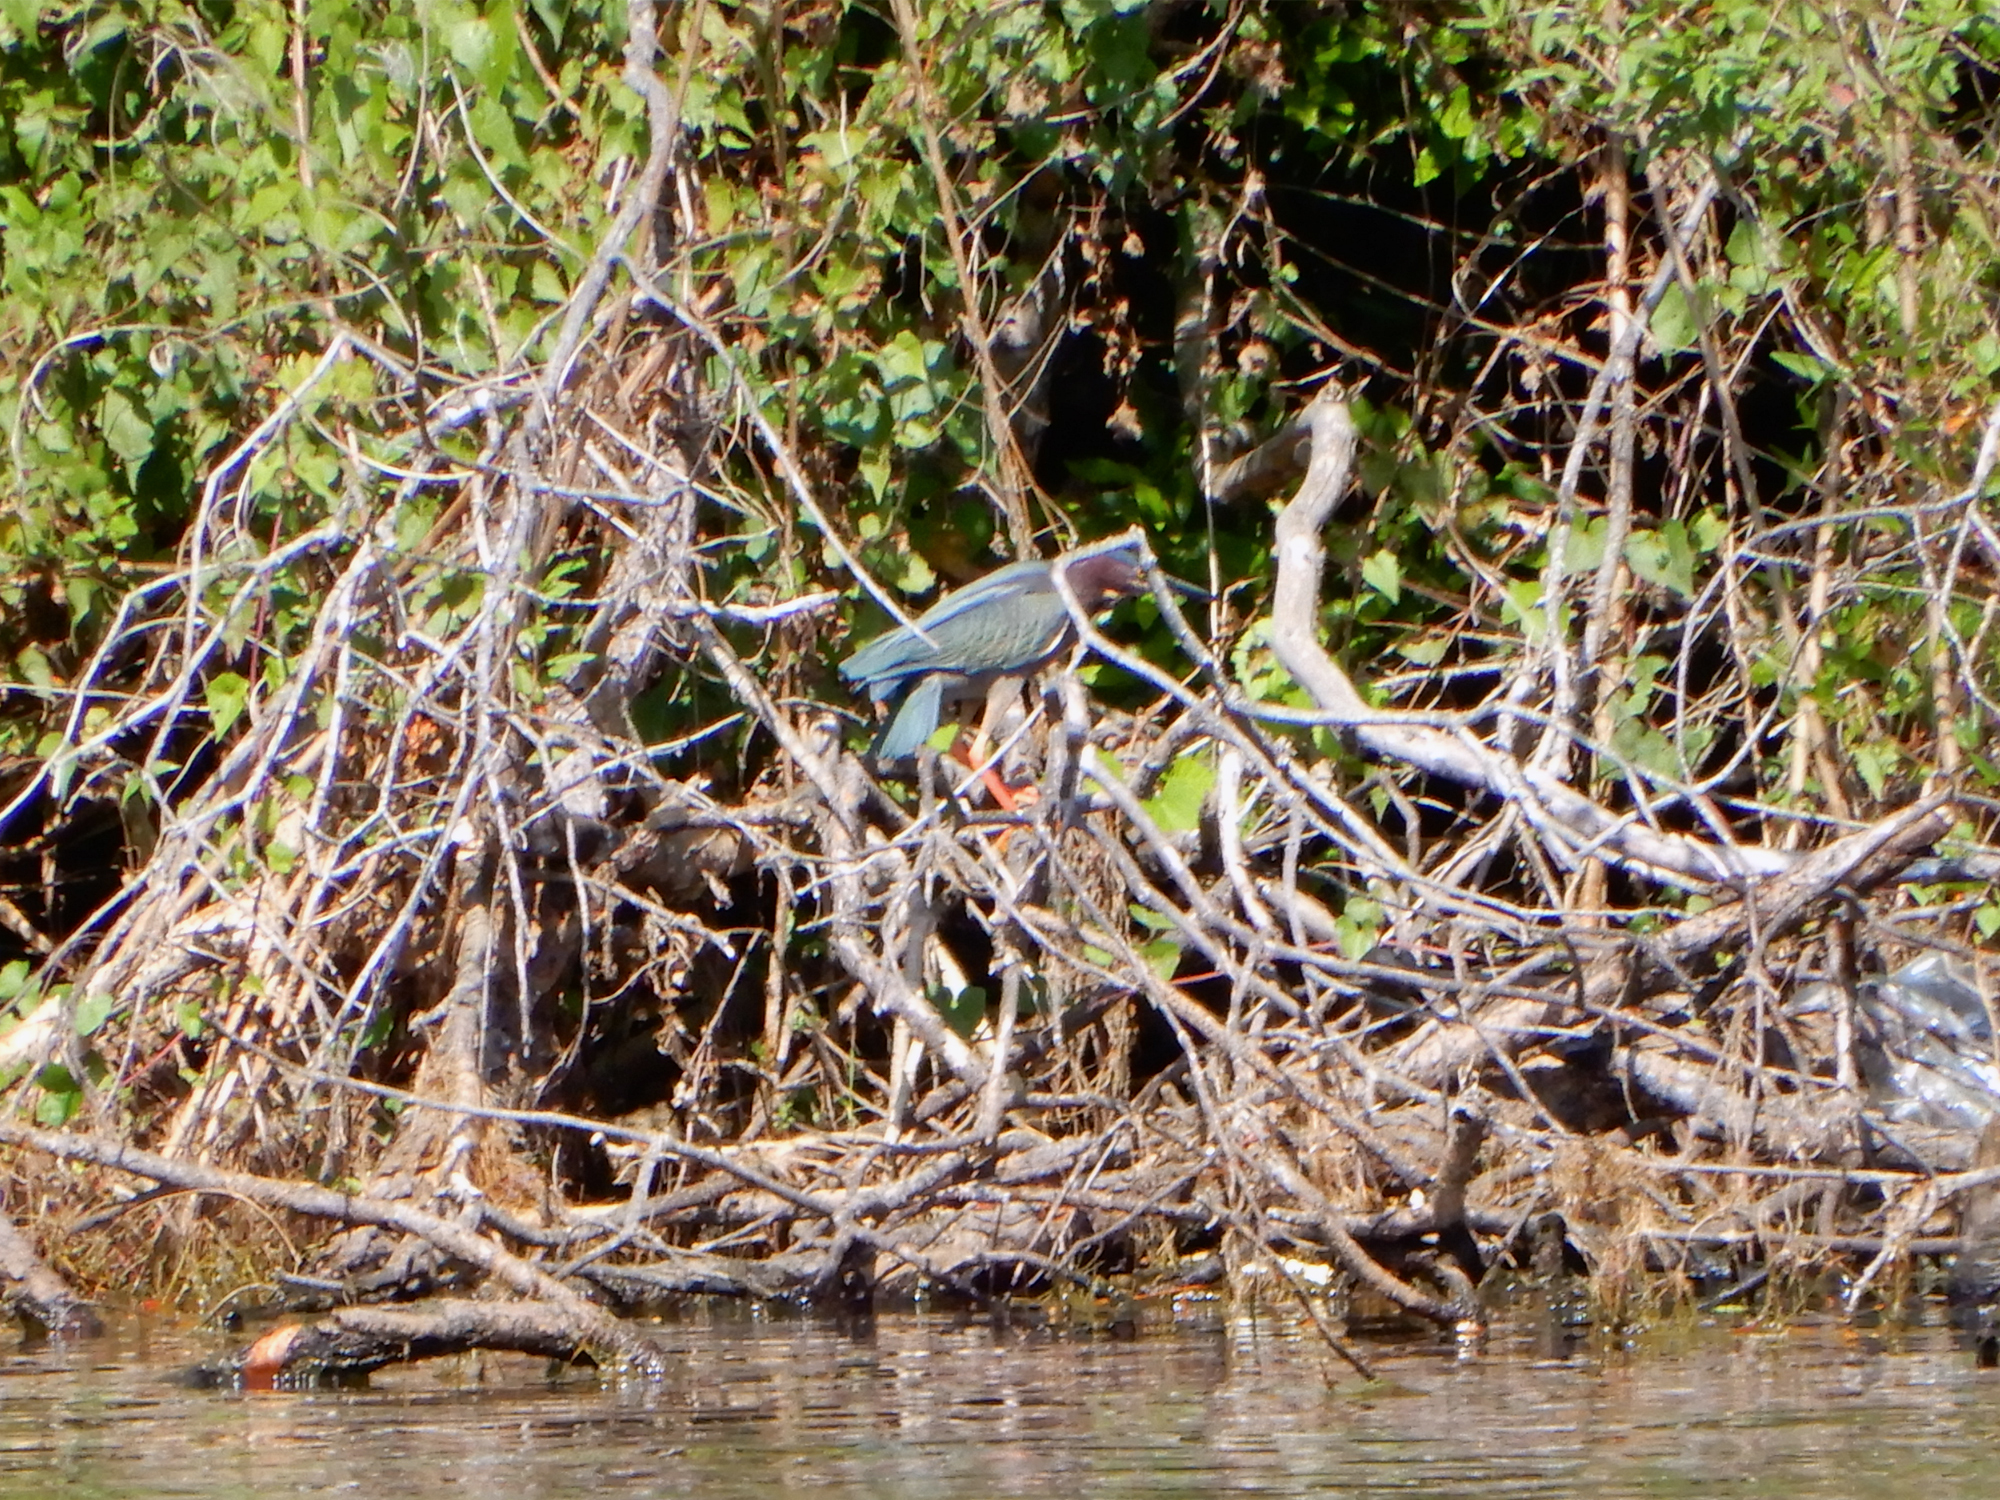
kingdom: Animalia
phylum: Chordata
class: Aves
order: Pelecaniformes
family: Ardeidae
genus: Butorides
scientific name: Butorides virescens
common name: Green heron
